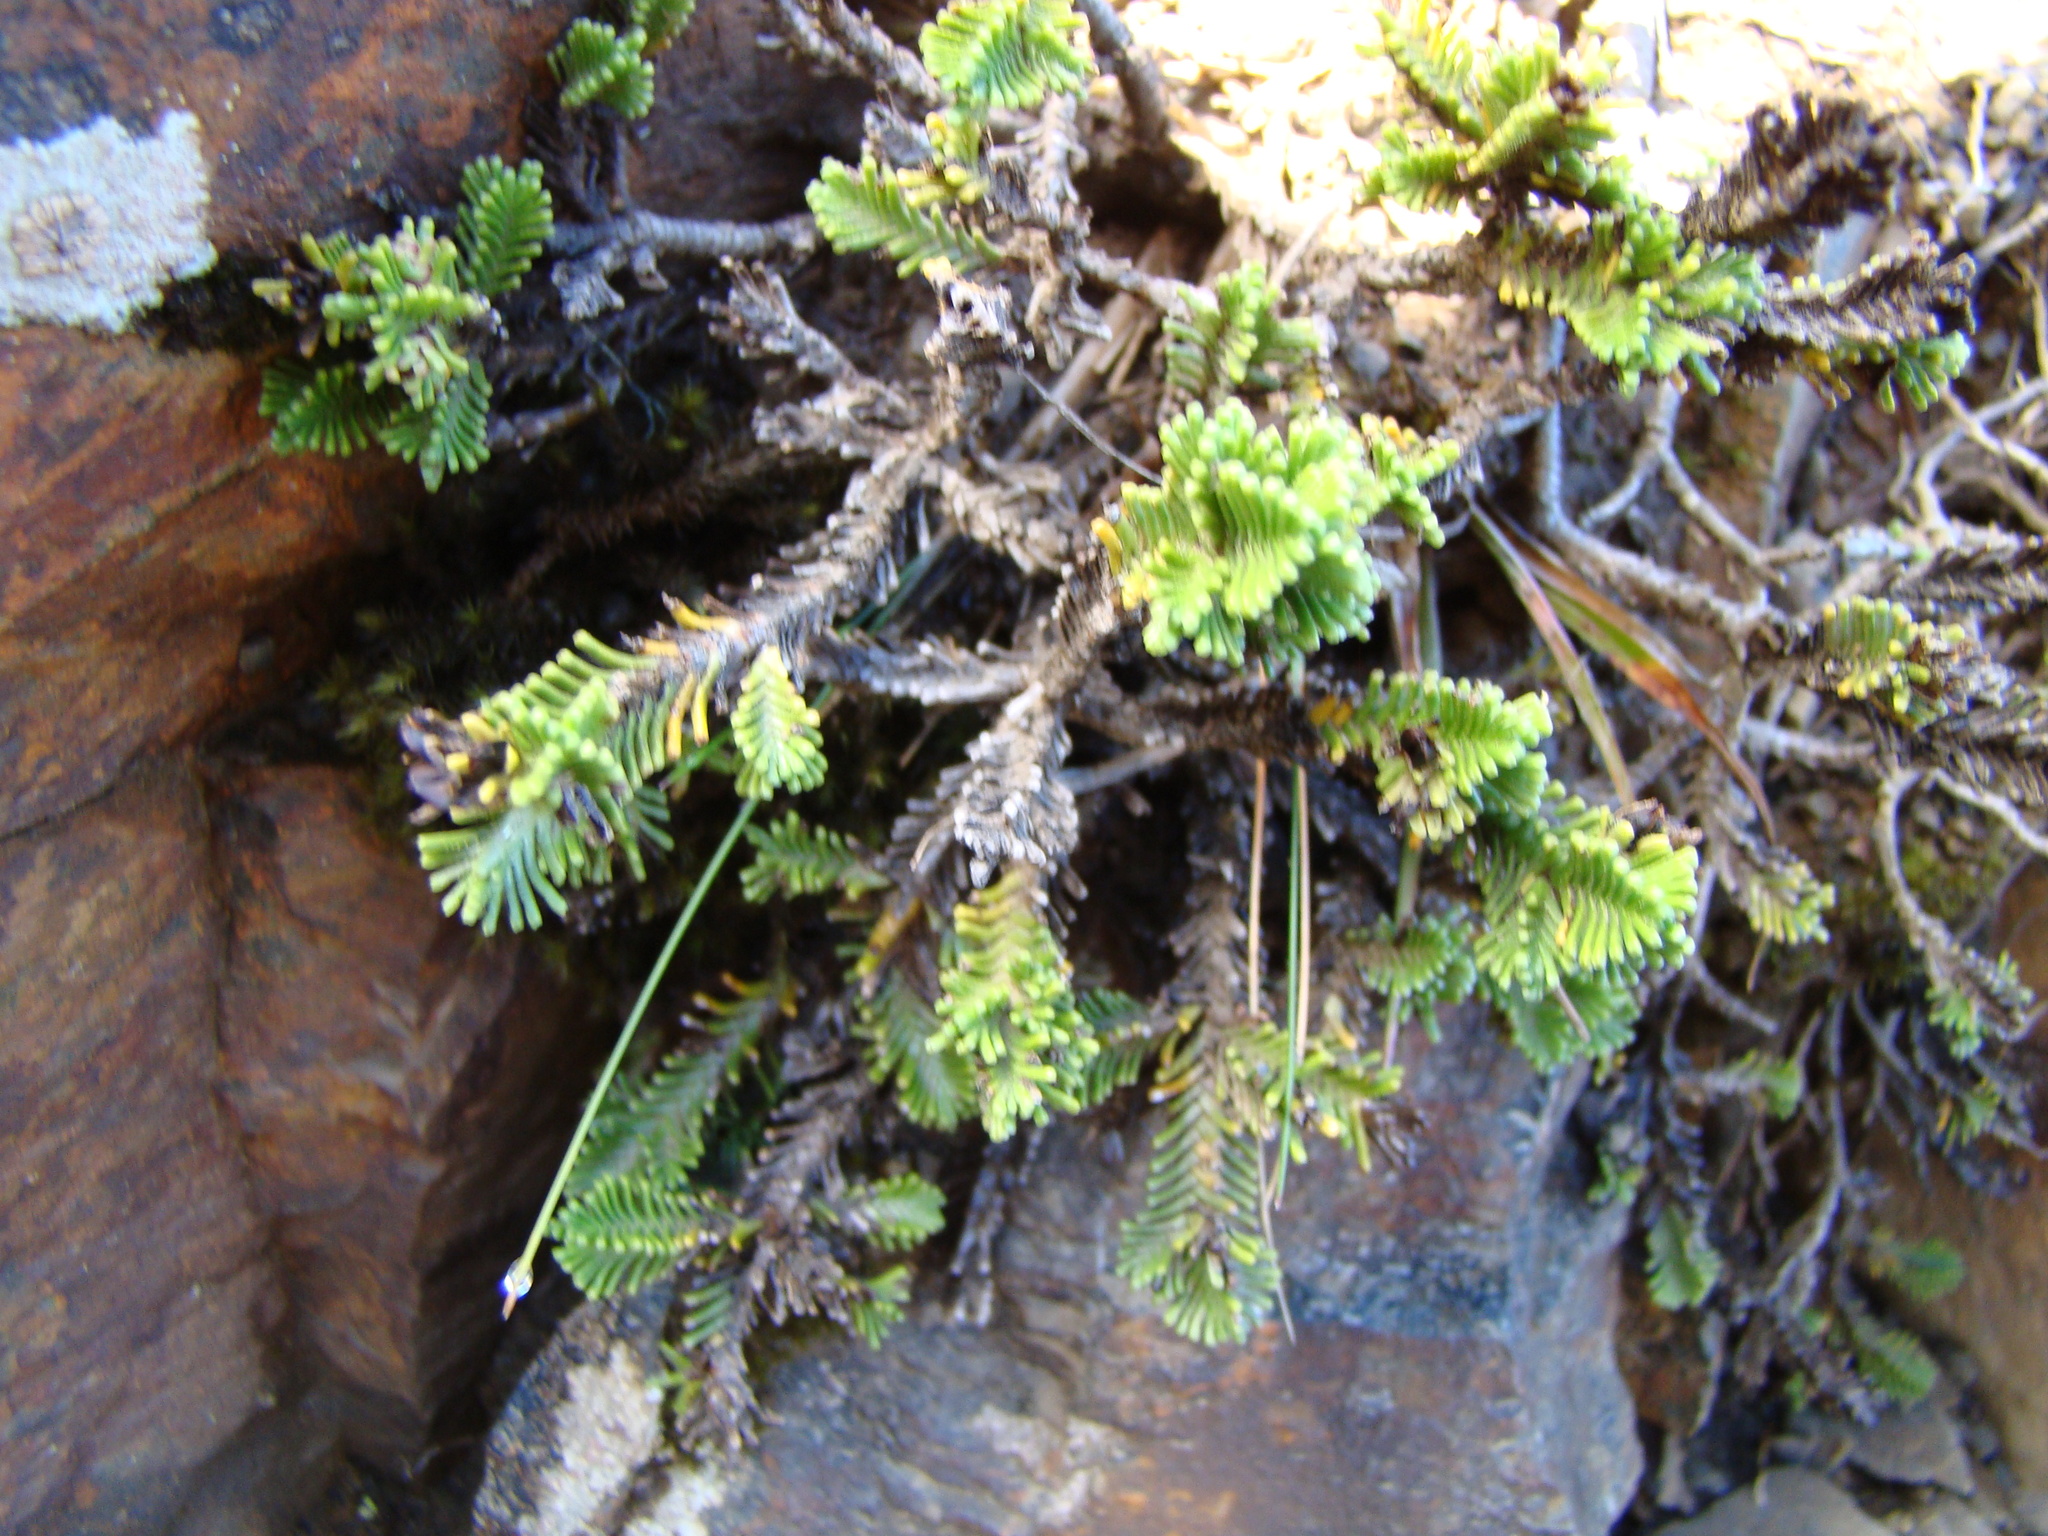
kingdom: Plantae
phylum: Tracheophyta
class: Magnoliopsida
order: Lamiales
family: Plantaginaceae
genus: Veronica
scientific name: Veronica hookeri
